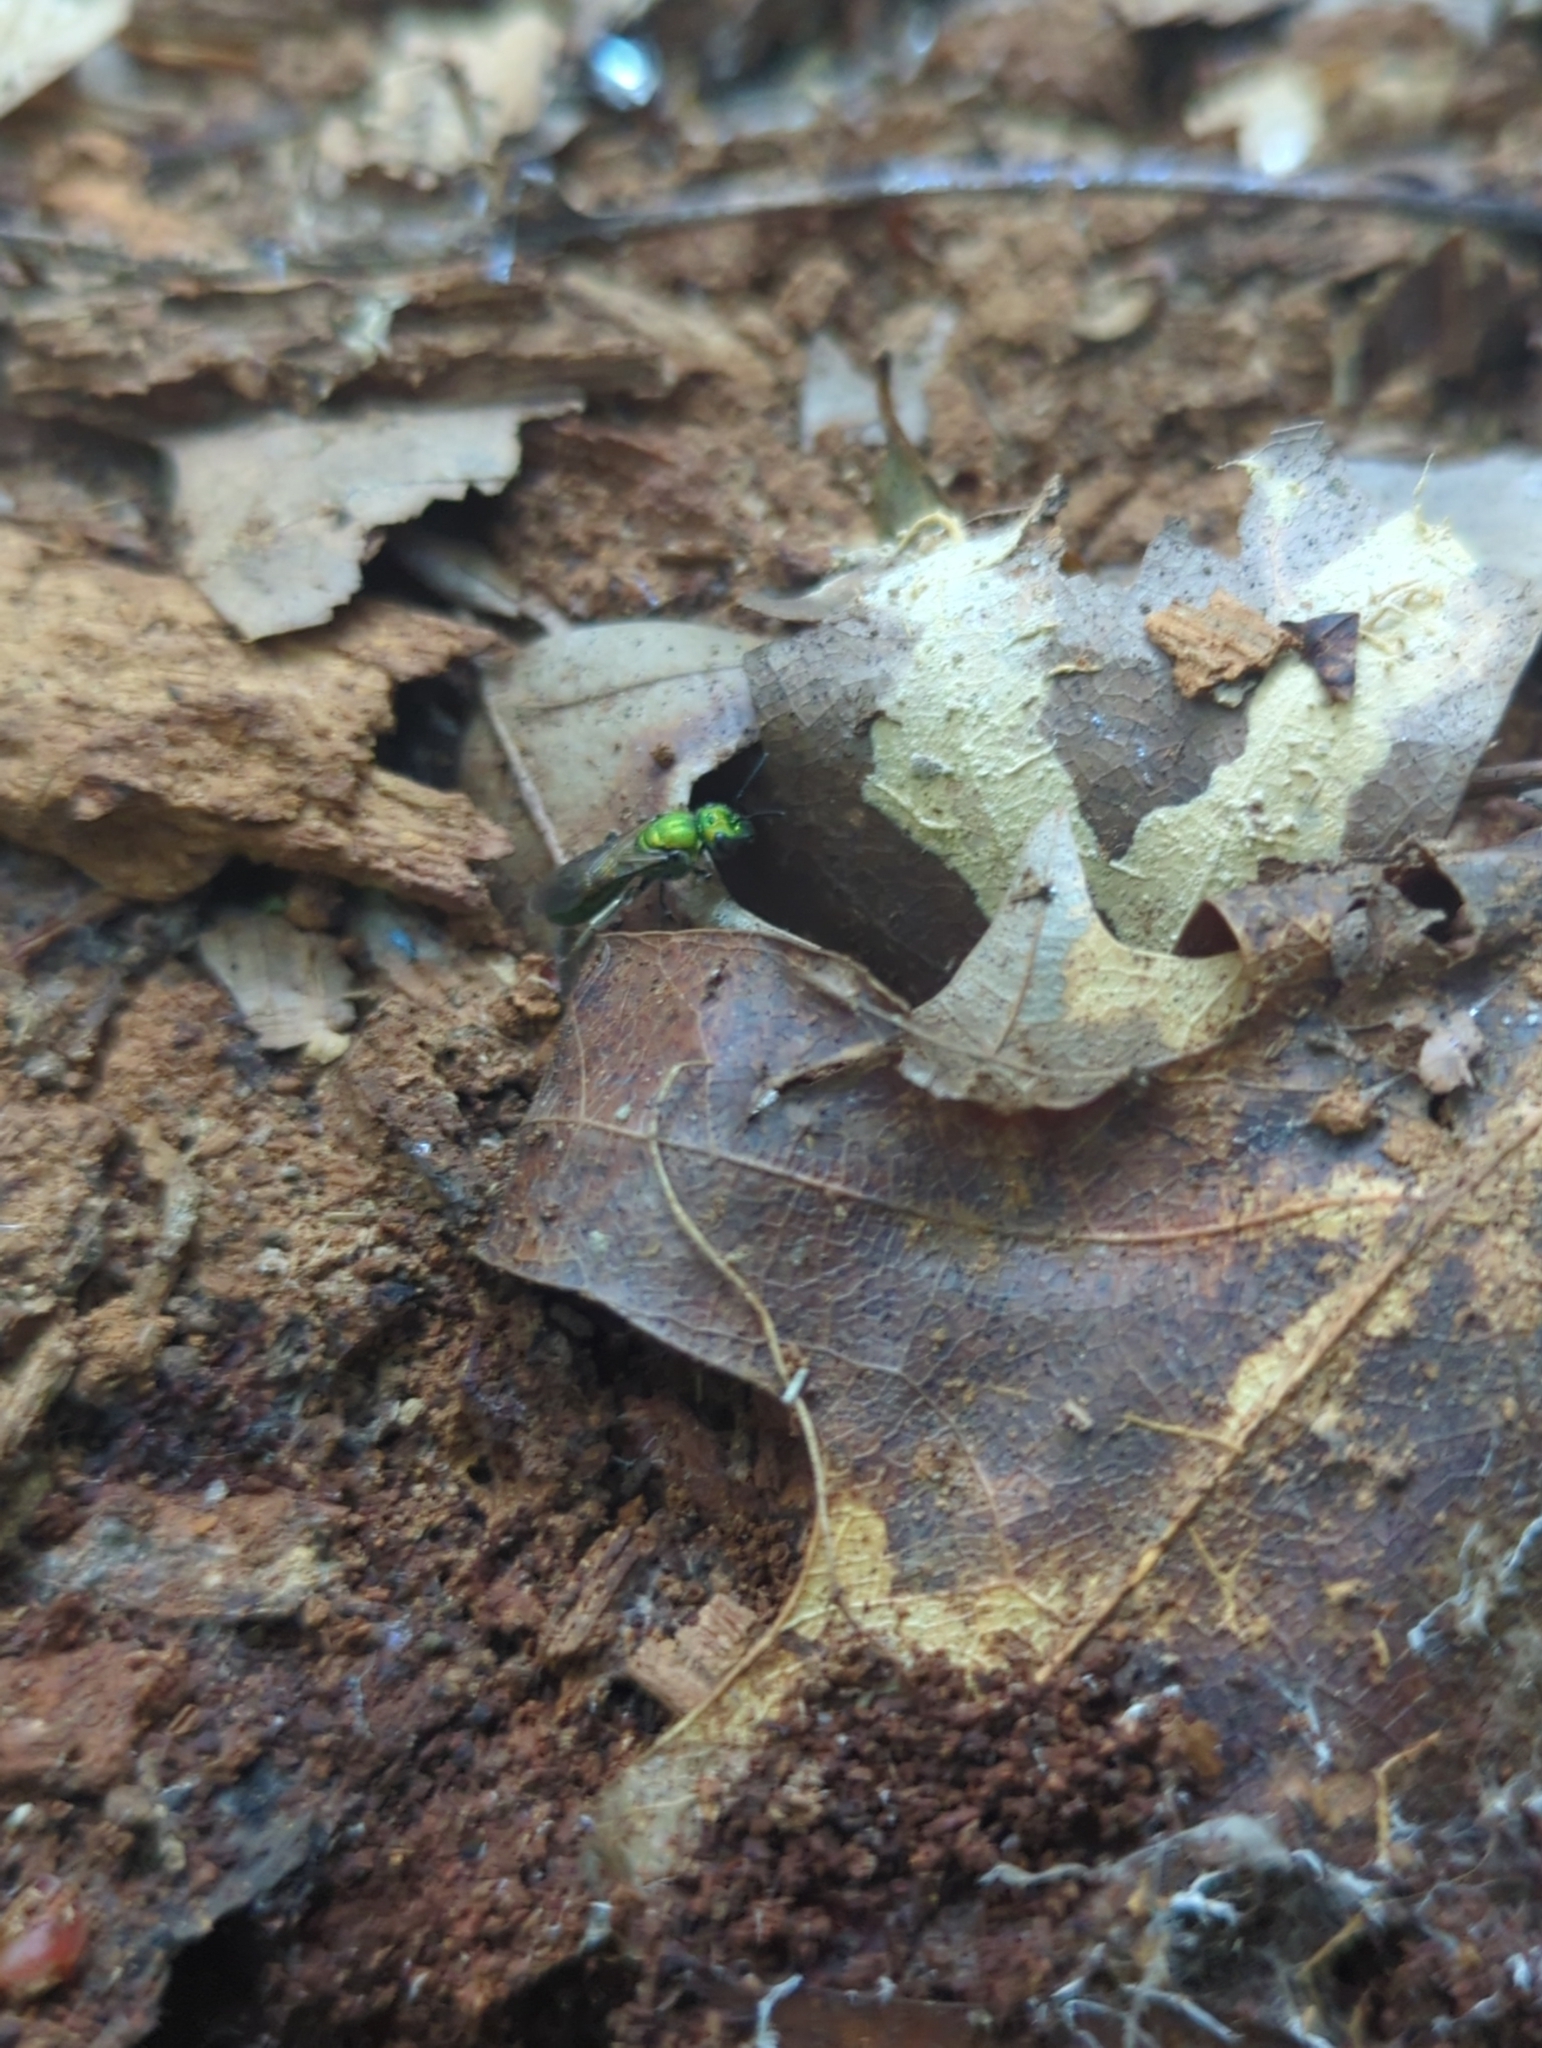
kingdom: Animalia
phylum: Arthropoda
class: Insecta
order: Hymenoptera
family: Halictidae
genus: Augochlora
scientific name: Augochlora pura
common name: Pure green sweat bee
